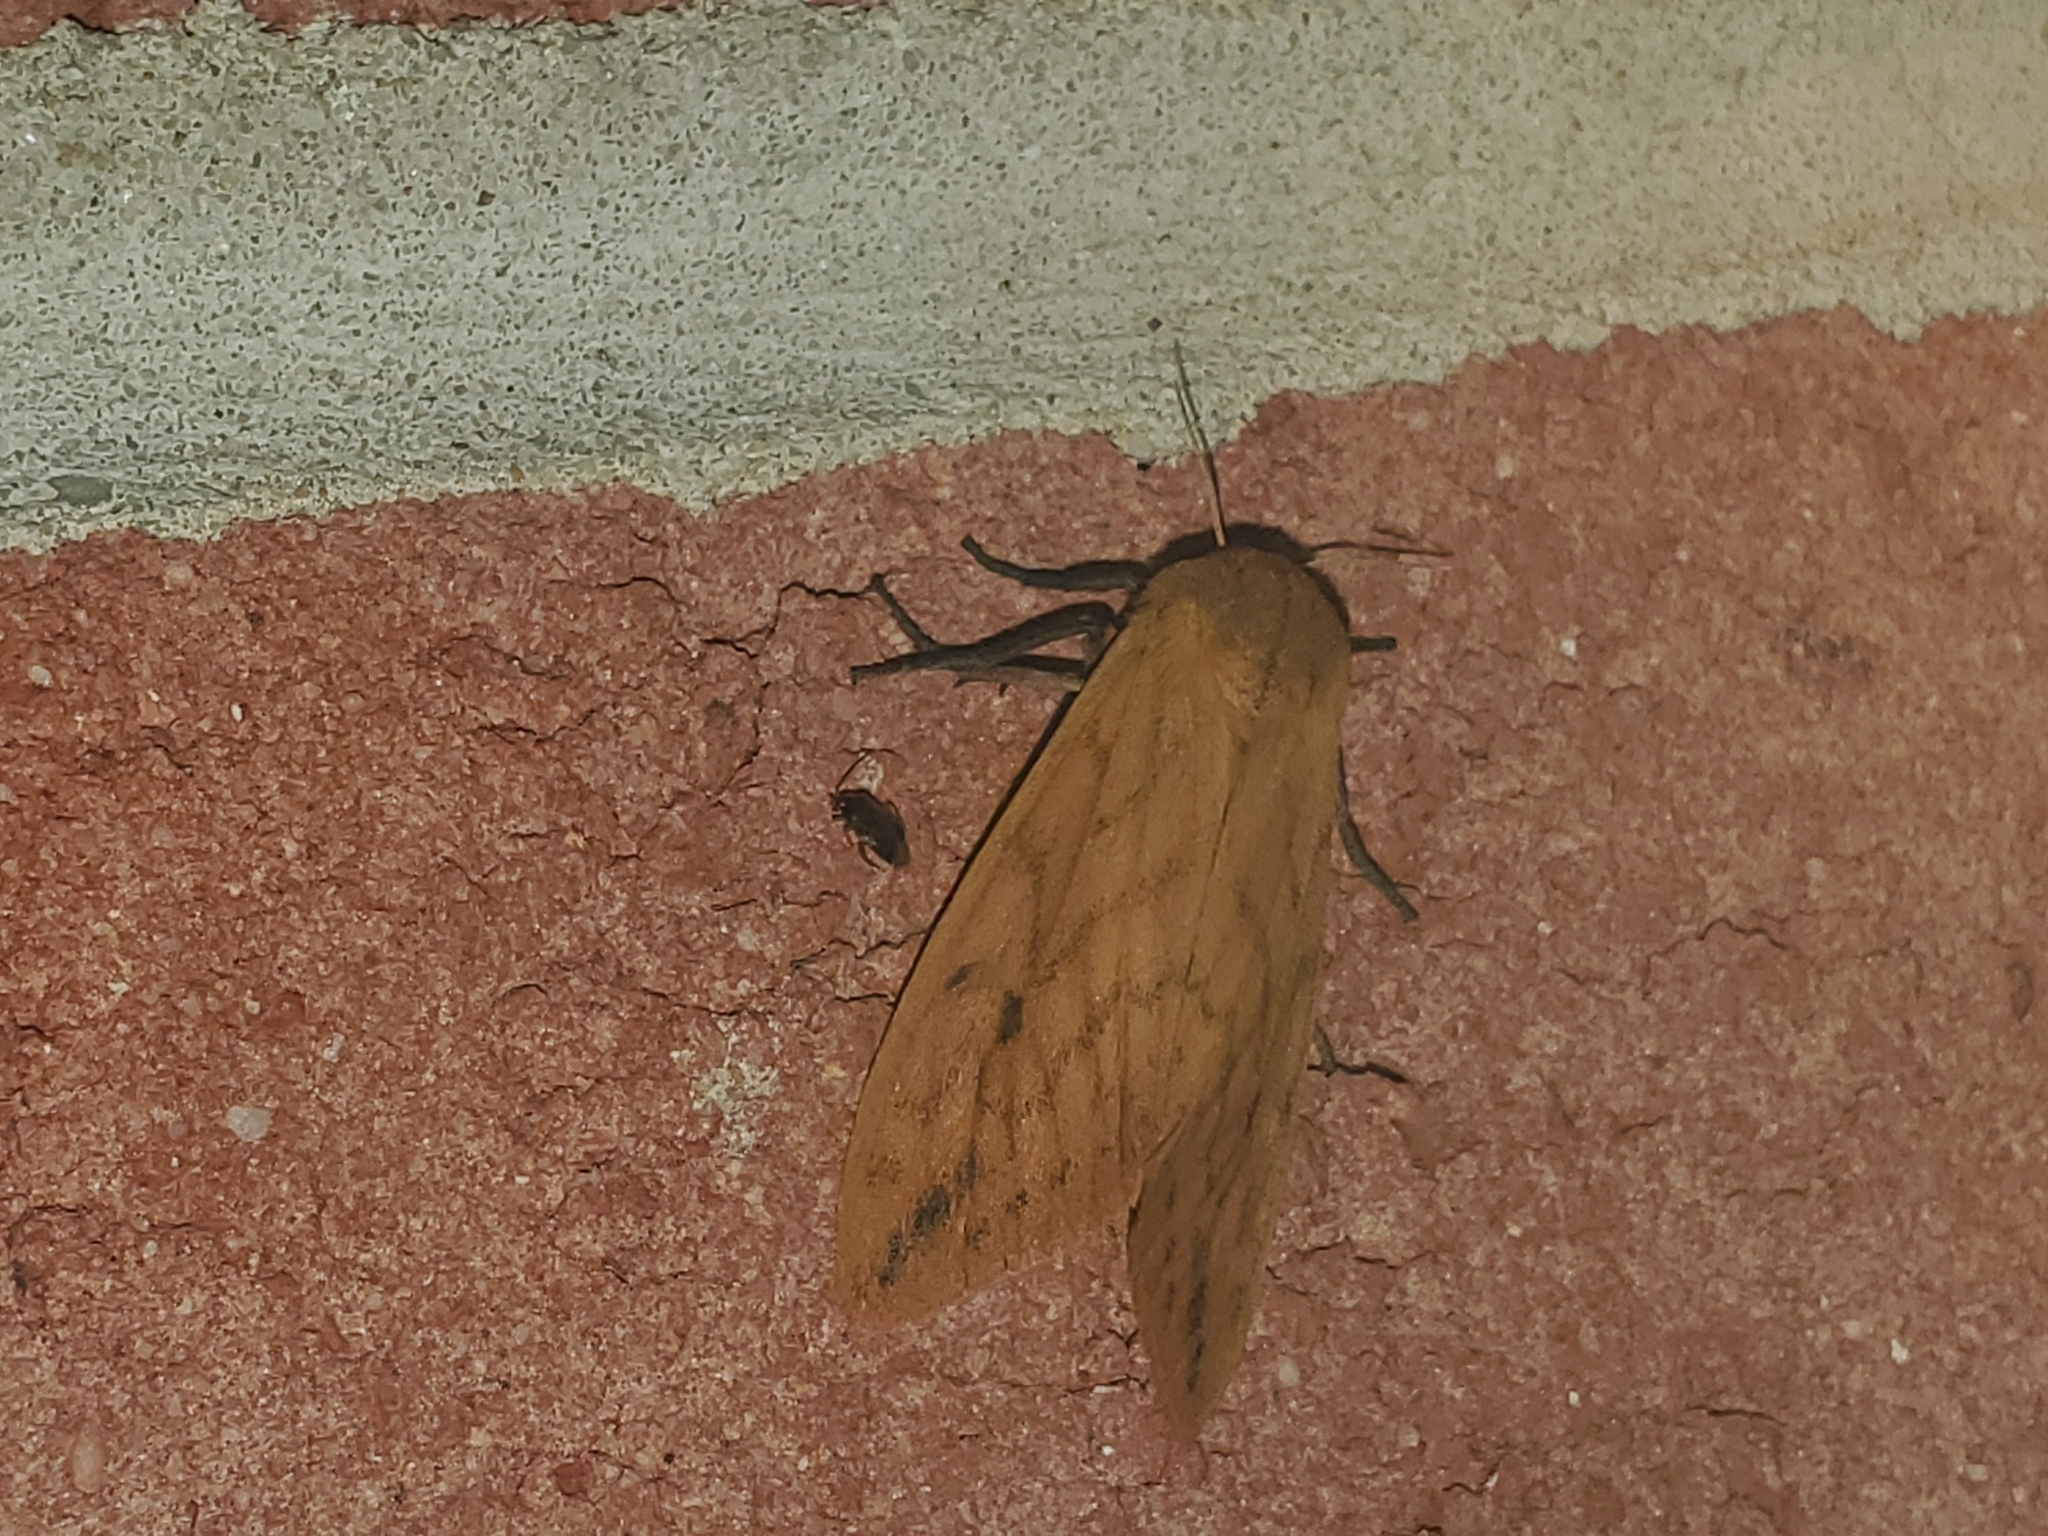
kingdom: Animalia
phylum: Arthropoda
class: Insecta
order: Lepidoptera
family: Erebidae
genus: Pyrrharctia
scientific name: Pyrrharctia isabella
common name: Isabella tiger moth
